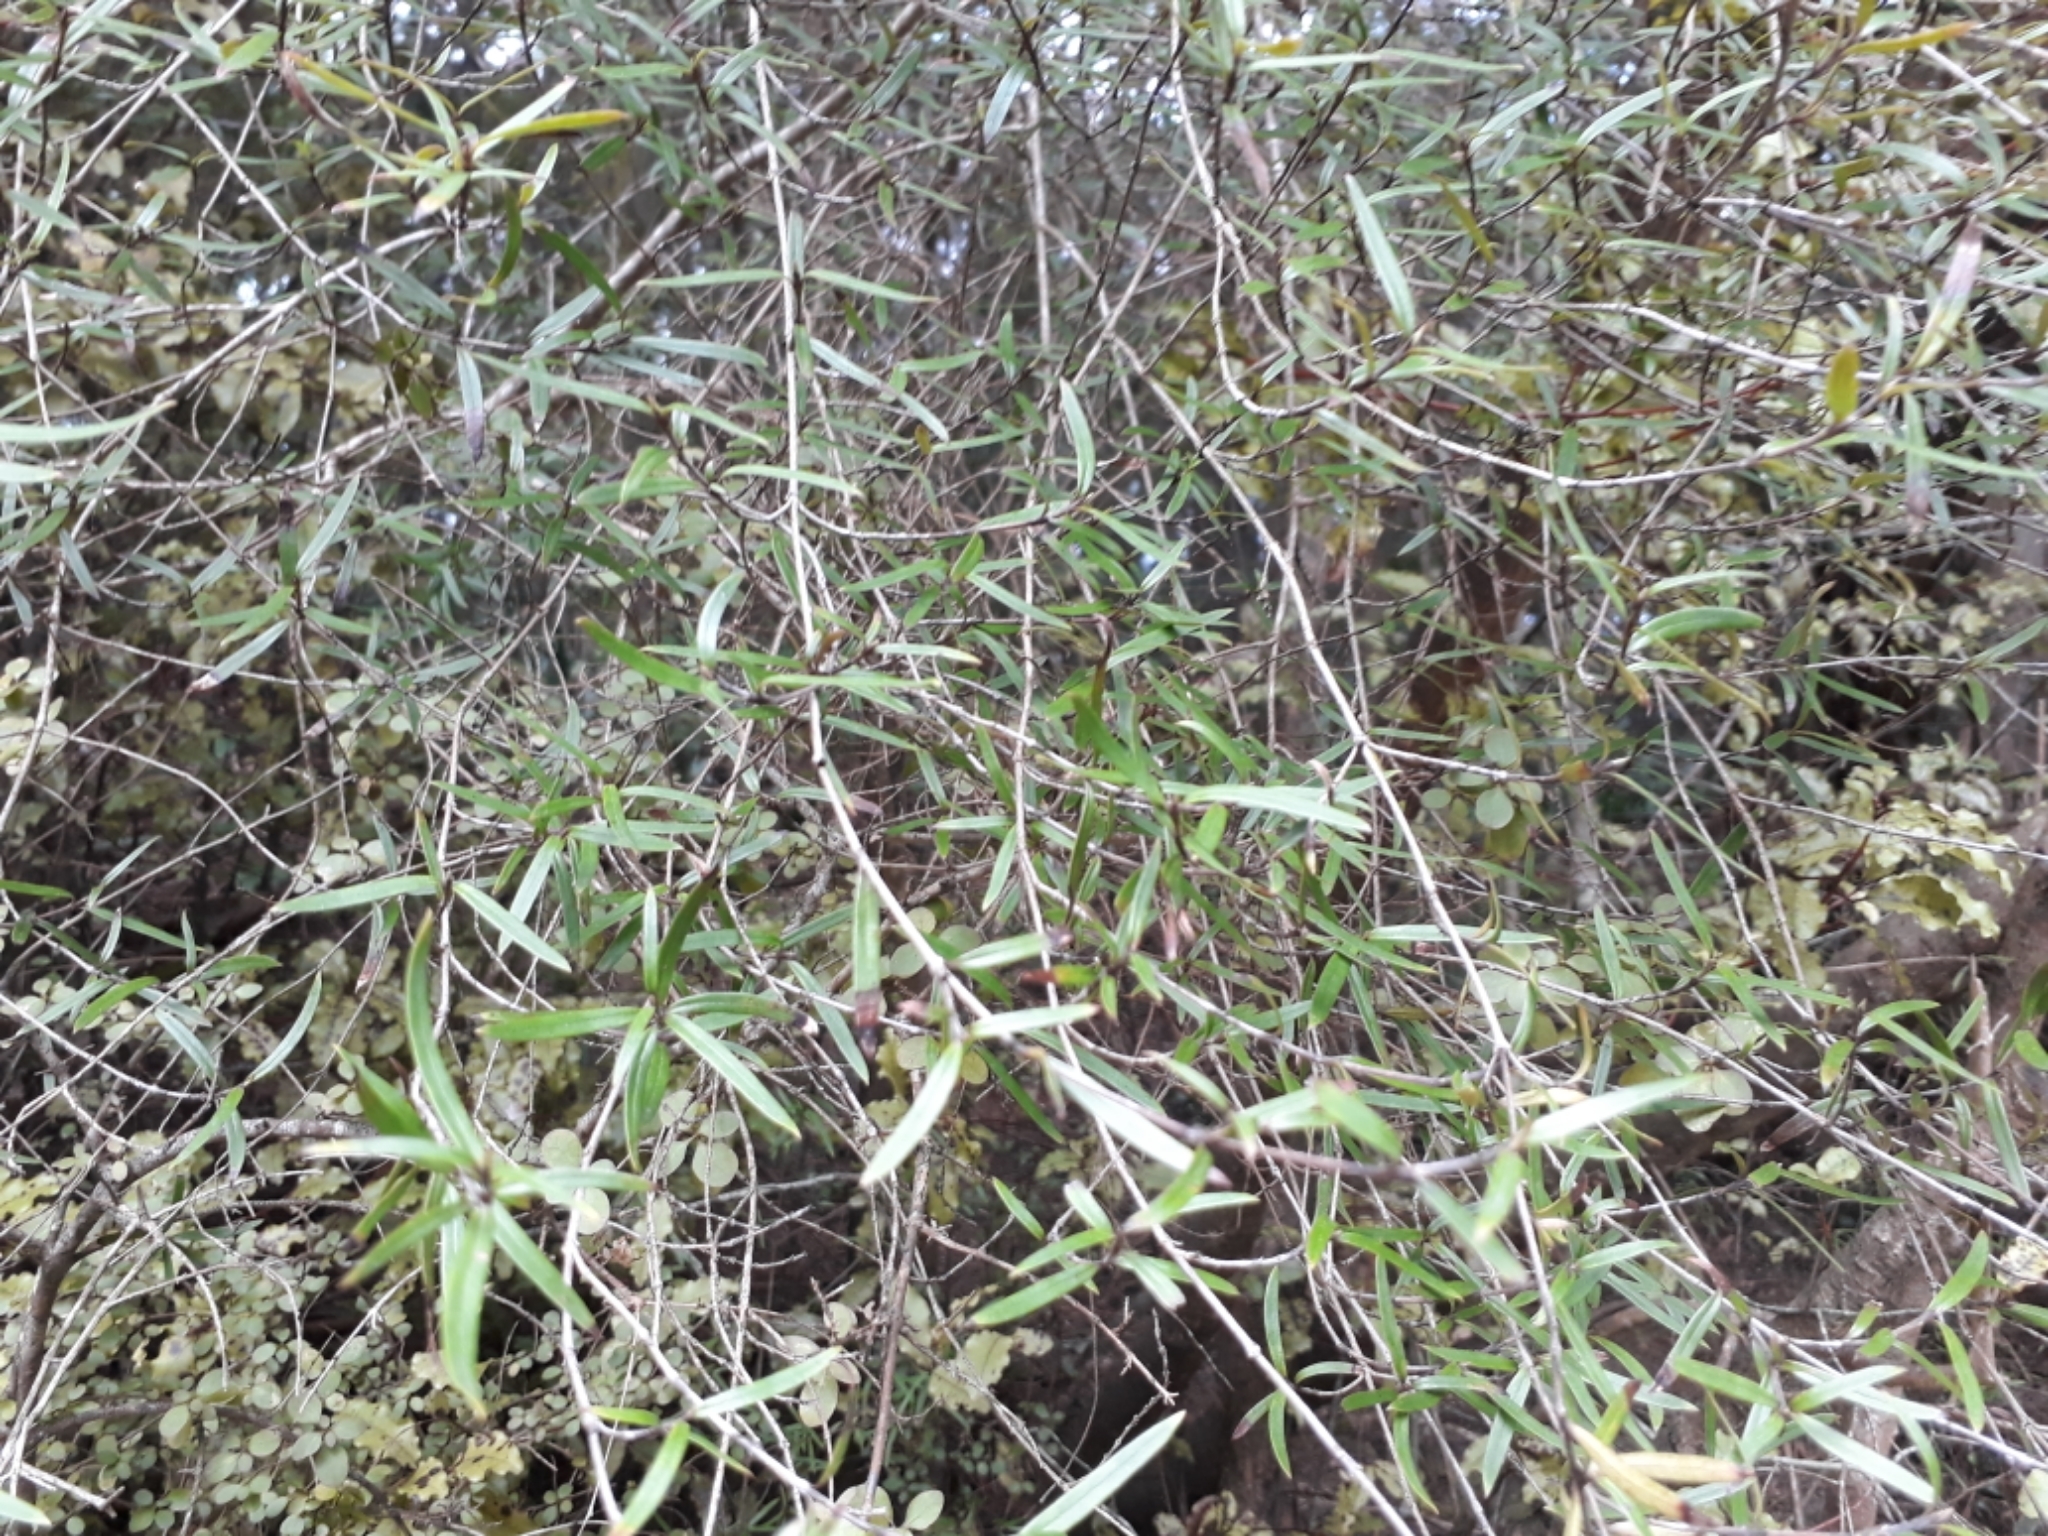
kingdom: Plantae
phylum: Tracheophyta
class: Magnoliopsida
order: Gentianales
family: Rubiaceae
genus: Coprosma
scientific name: Coprosma linariifolia
